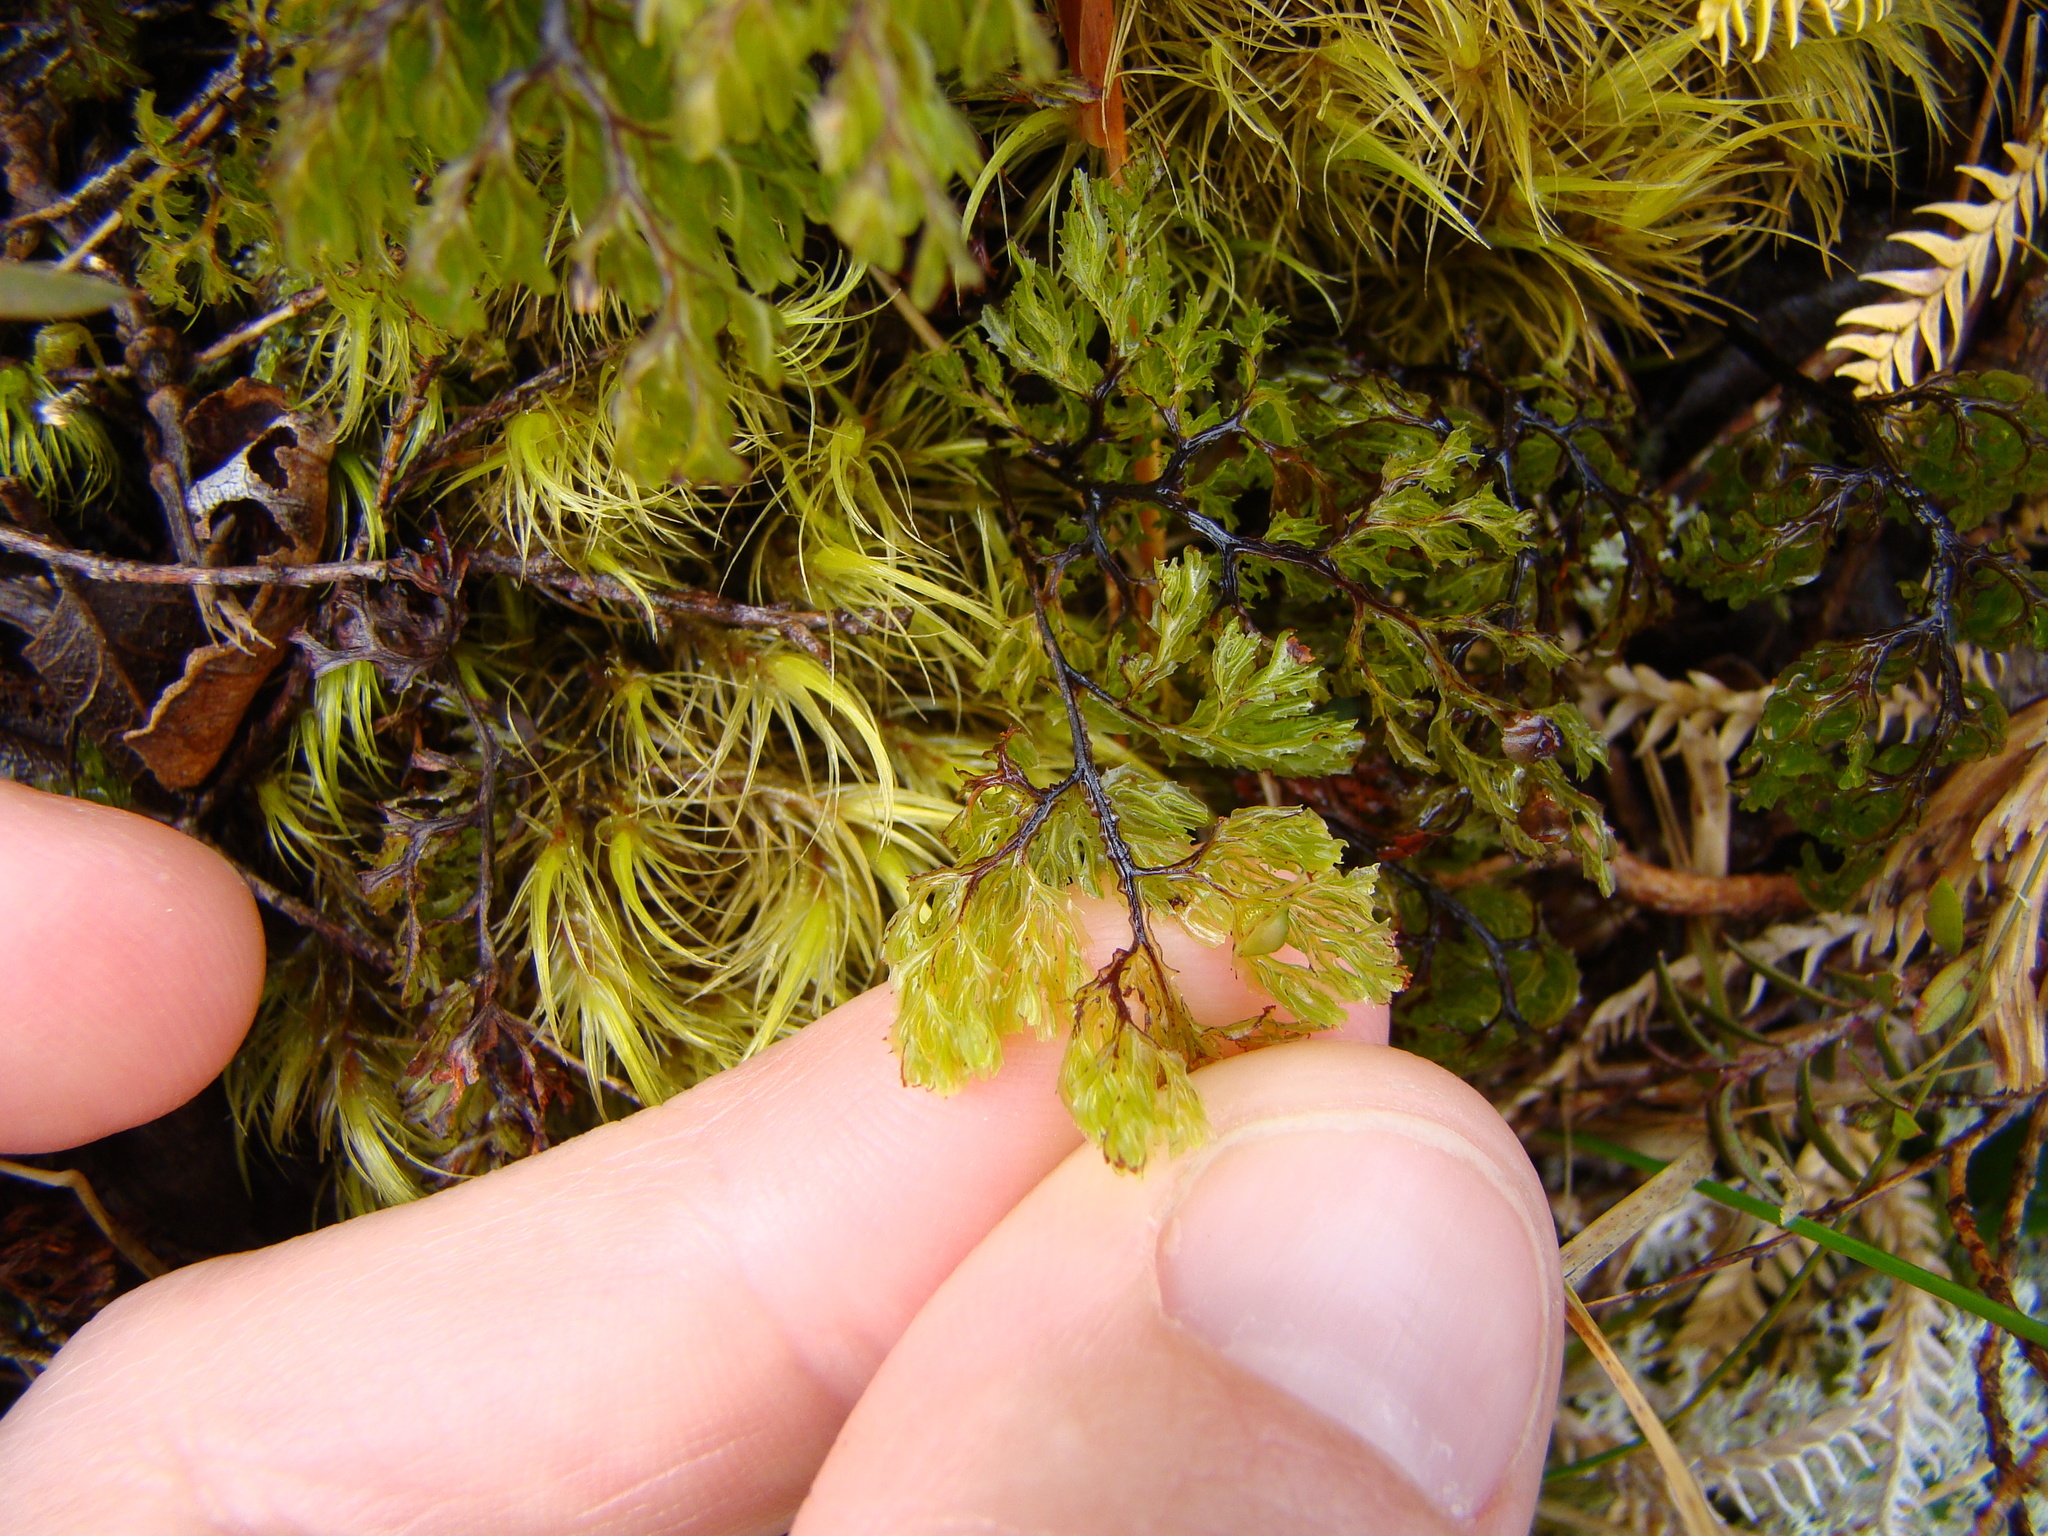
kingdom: Plantae
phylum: Tracheophyta
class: Polypodiopsida
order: Hymenophyllales
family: Hymenophyllaceae
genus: Hymenophyllum
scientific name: Hymenophyllum multifidum
